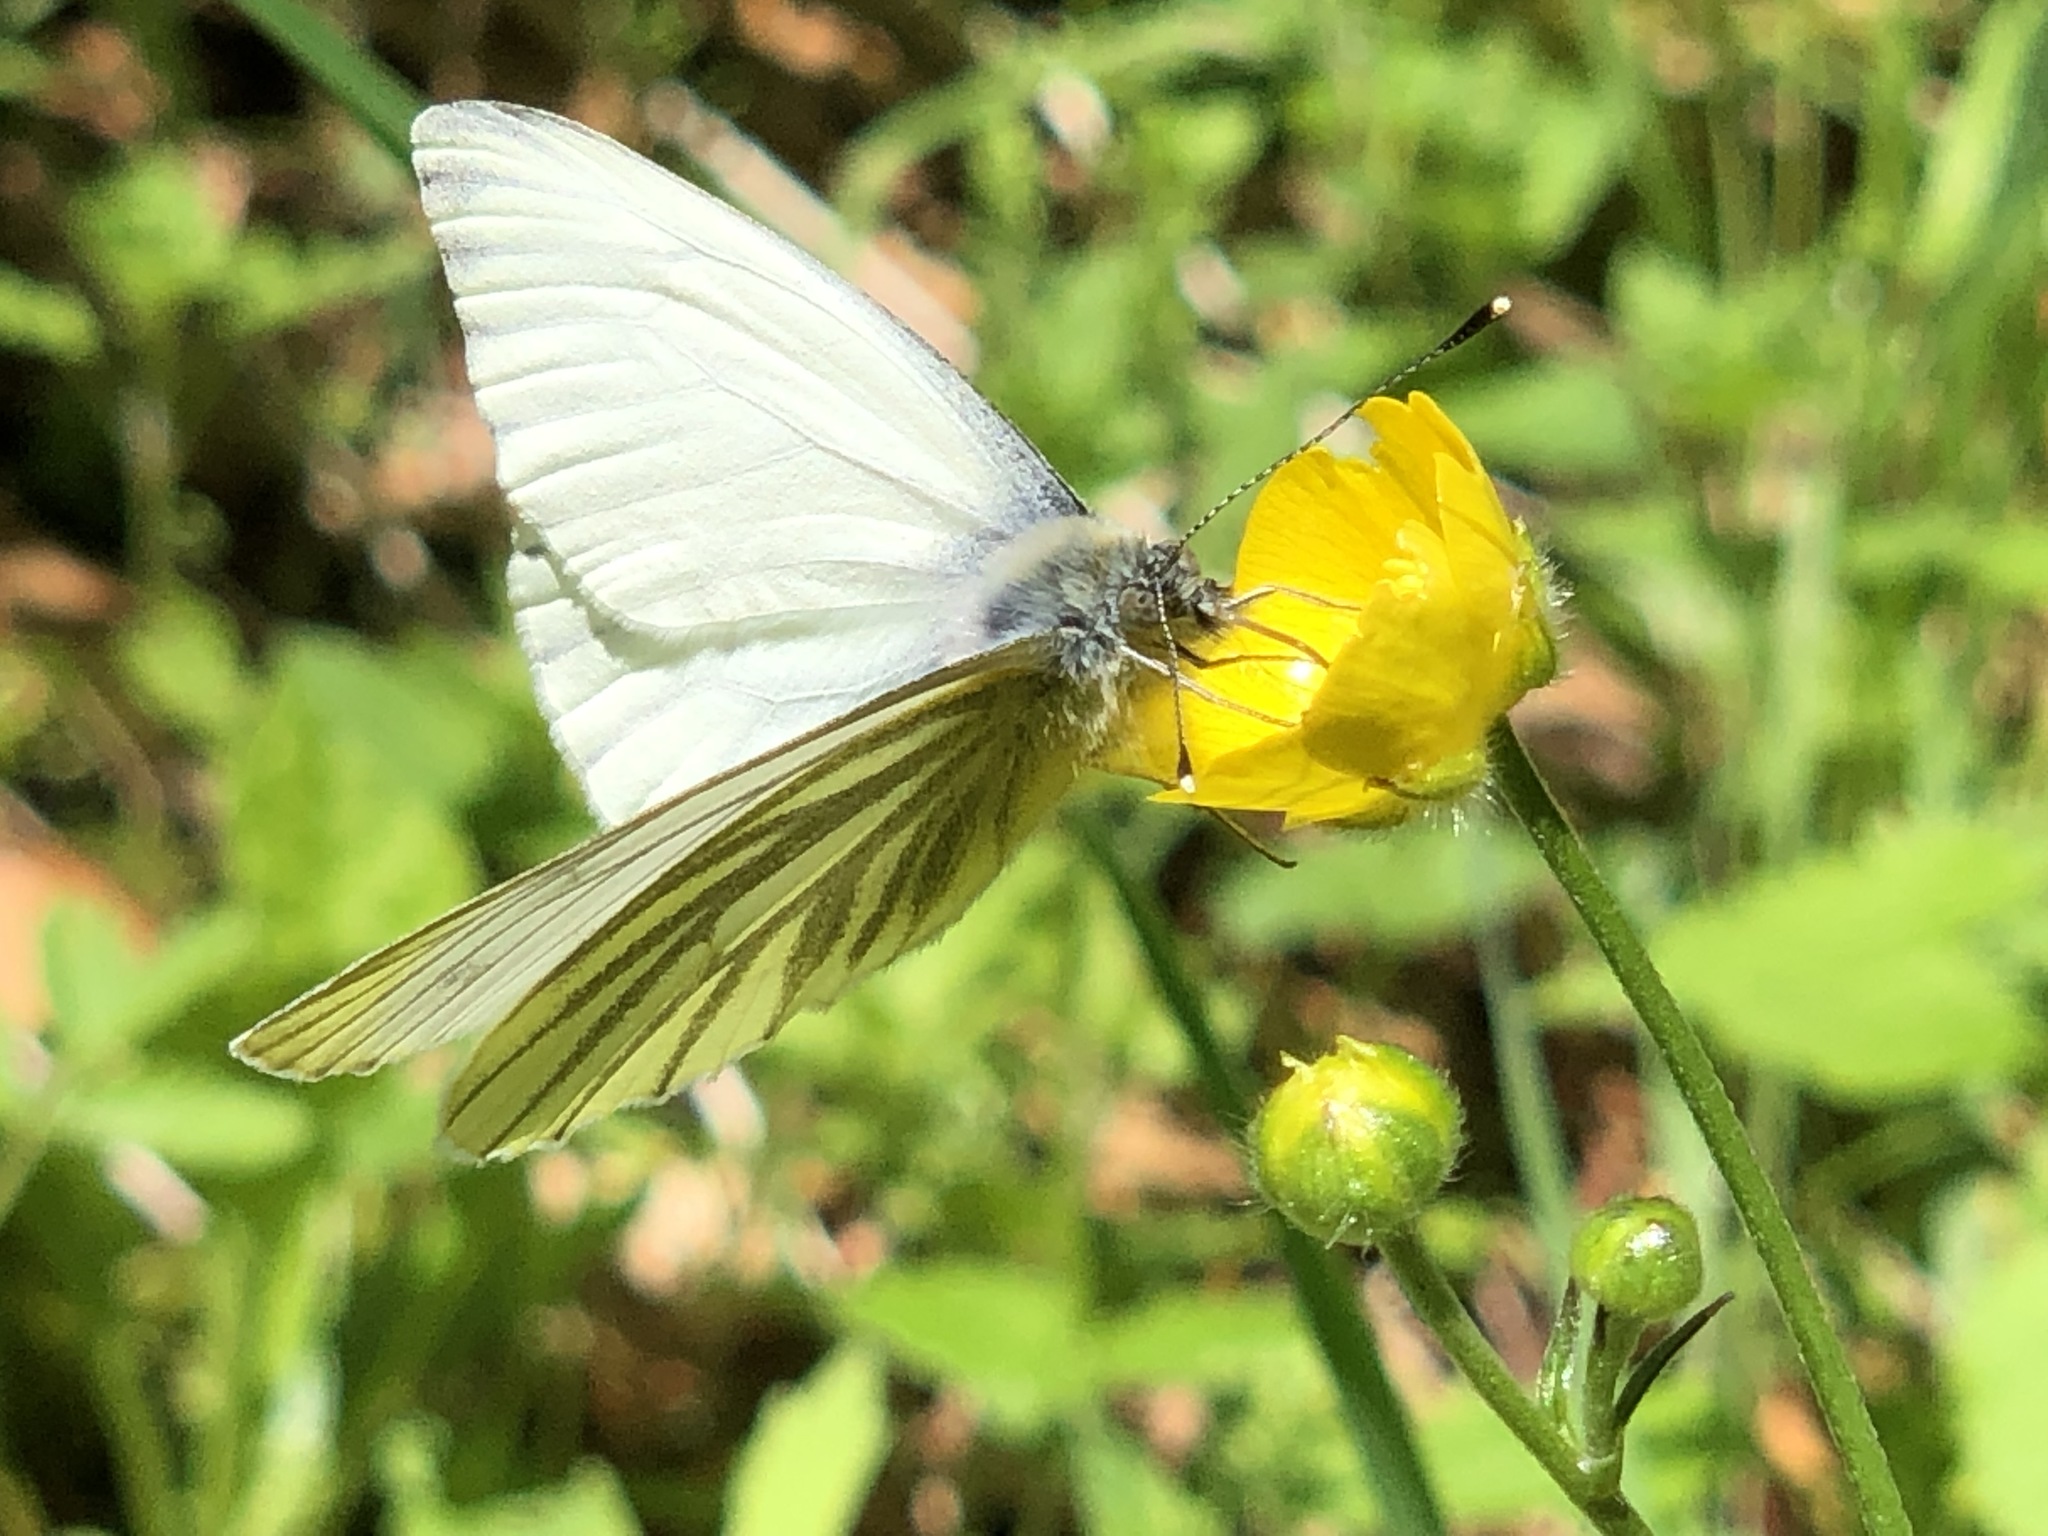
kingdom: Animalia
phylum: Arthropoda
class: Insecta
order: Lepidoptera
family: Pieridae
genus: Pieris
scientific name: Pieris napi
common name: Green-veined white
